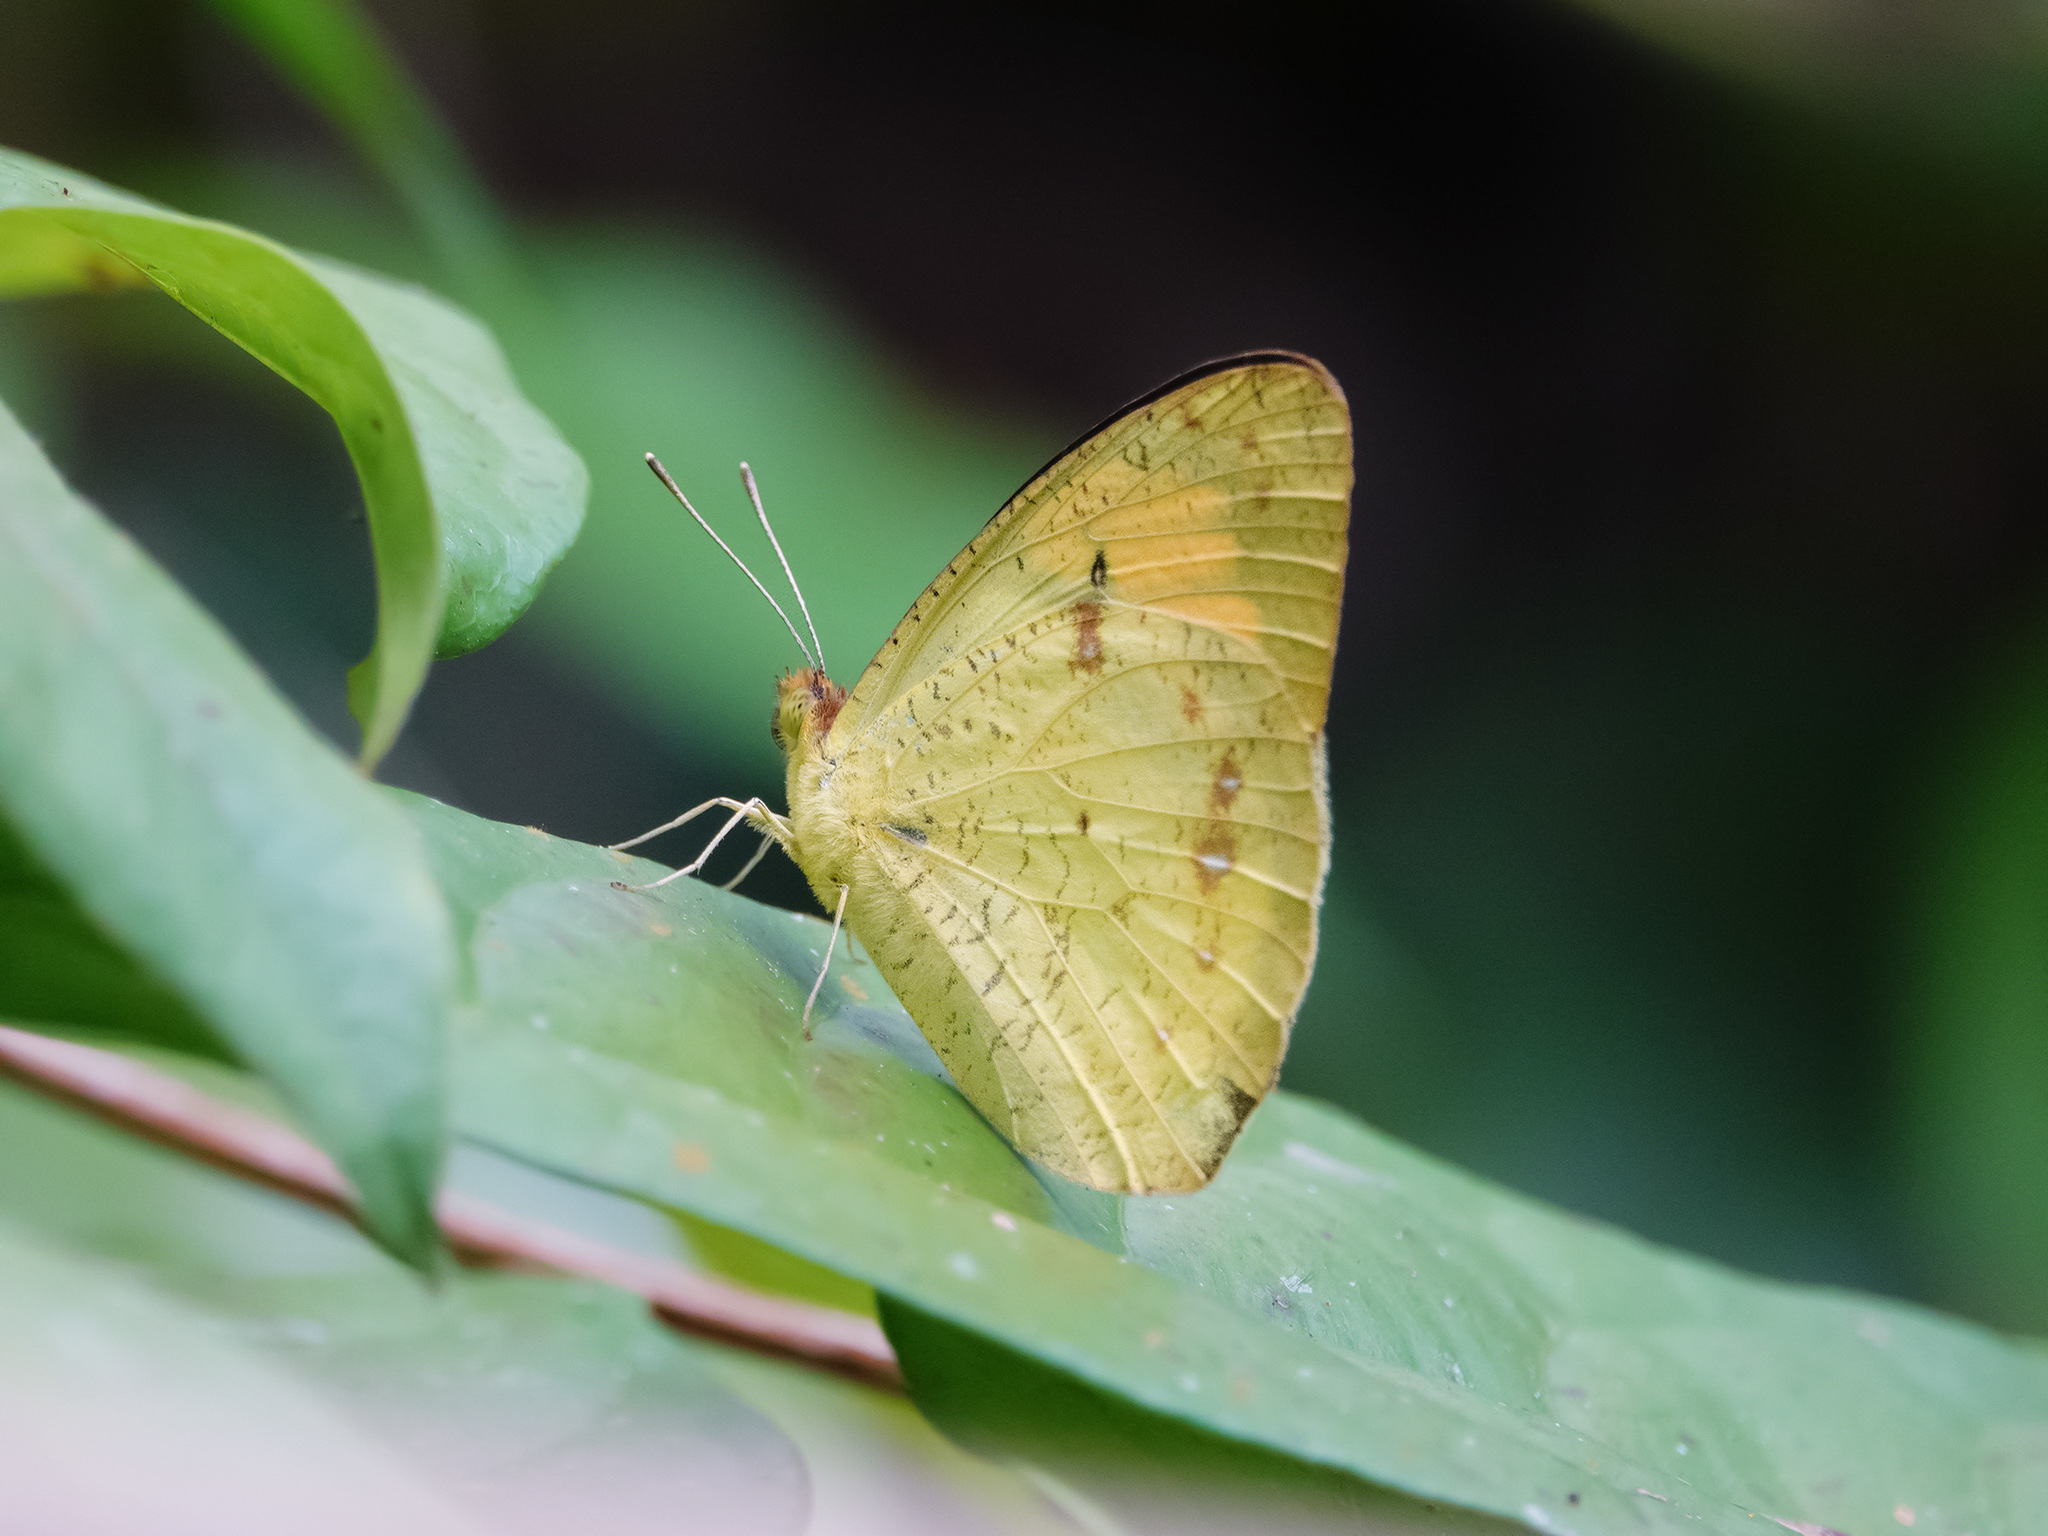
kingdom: Animalia
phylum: Arthropoda
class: Insecta
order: Lepidoptera
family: Pieridae
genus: Ixias
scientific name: Ixias pyrene
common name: Yellow orange tip
